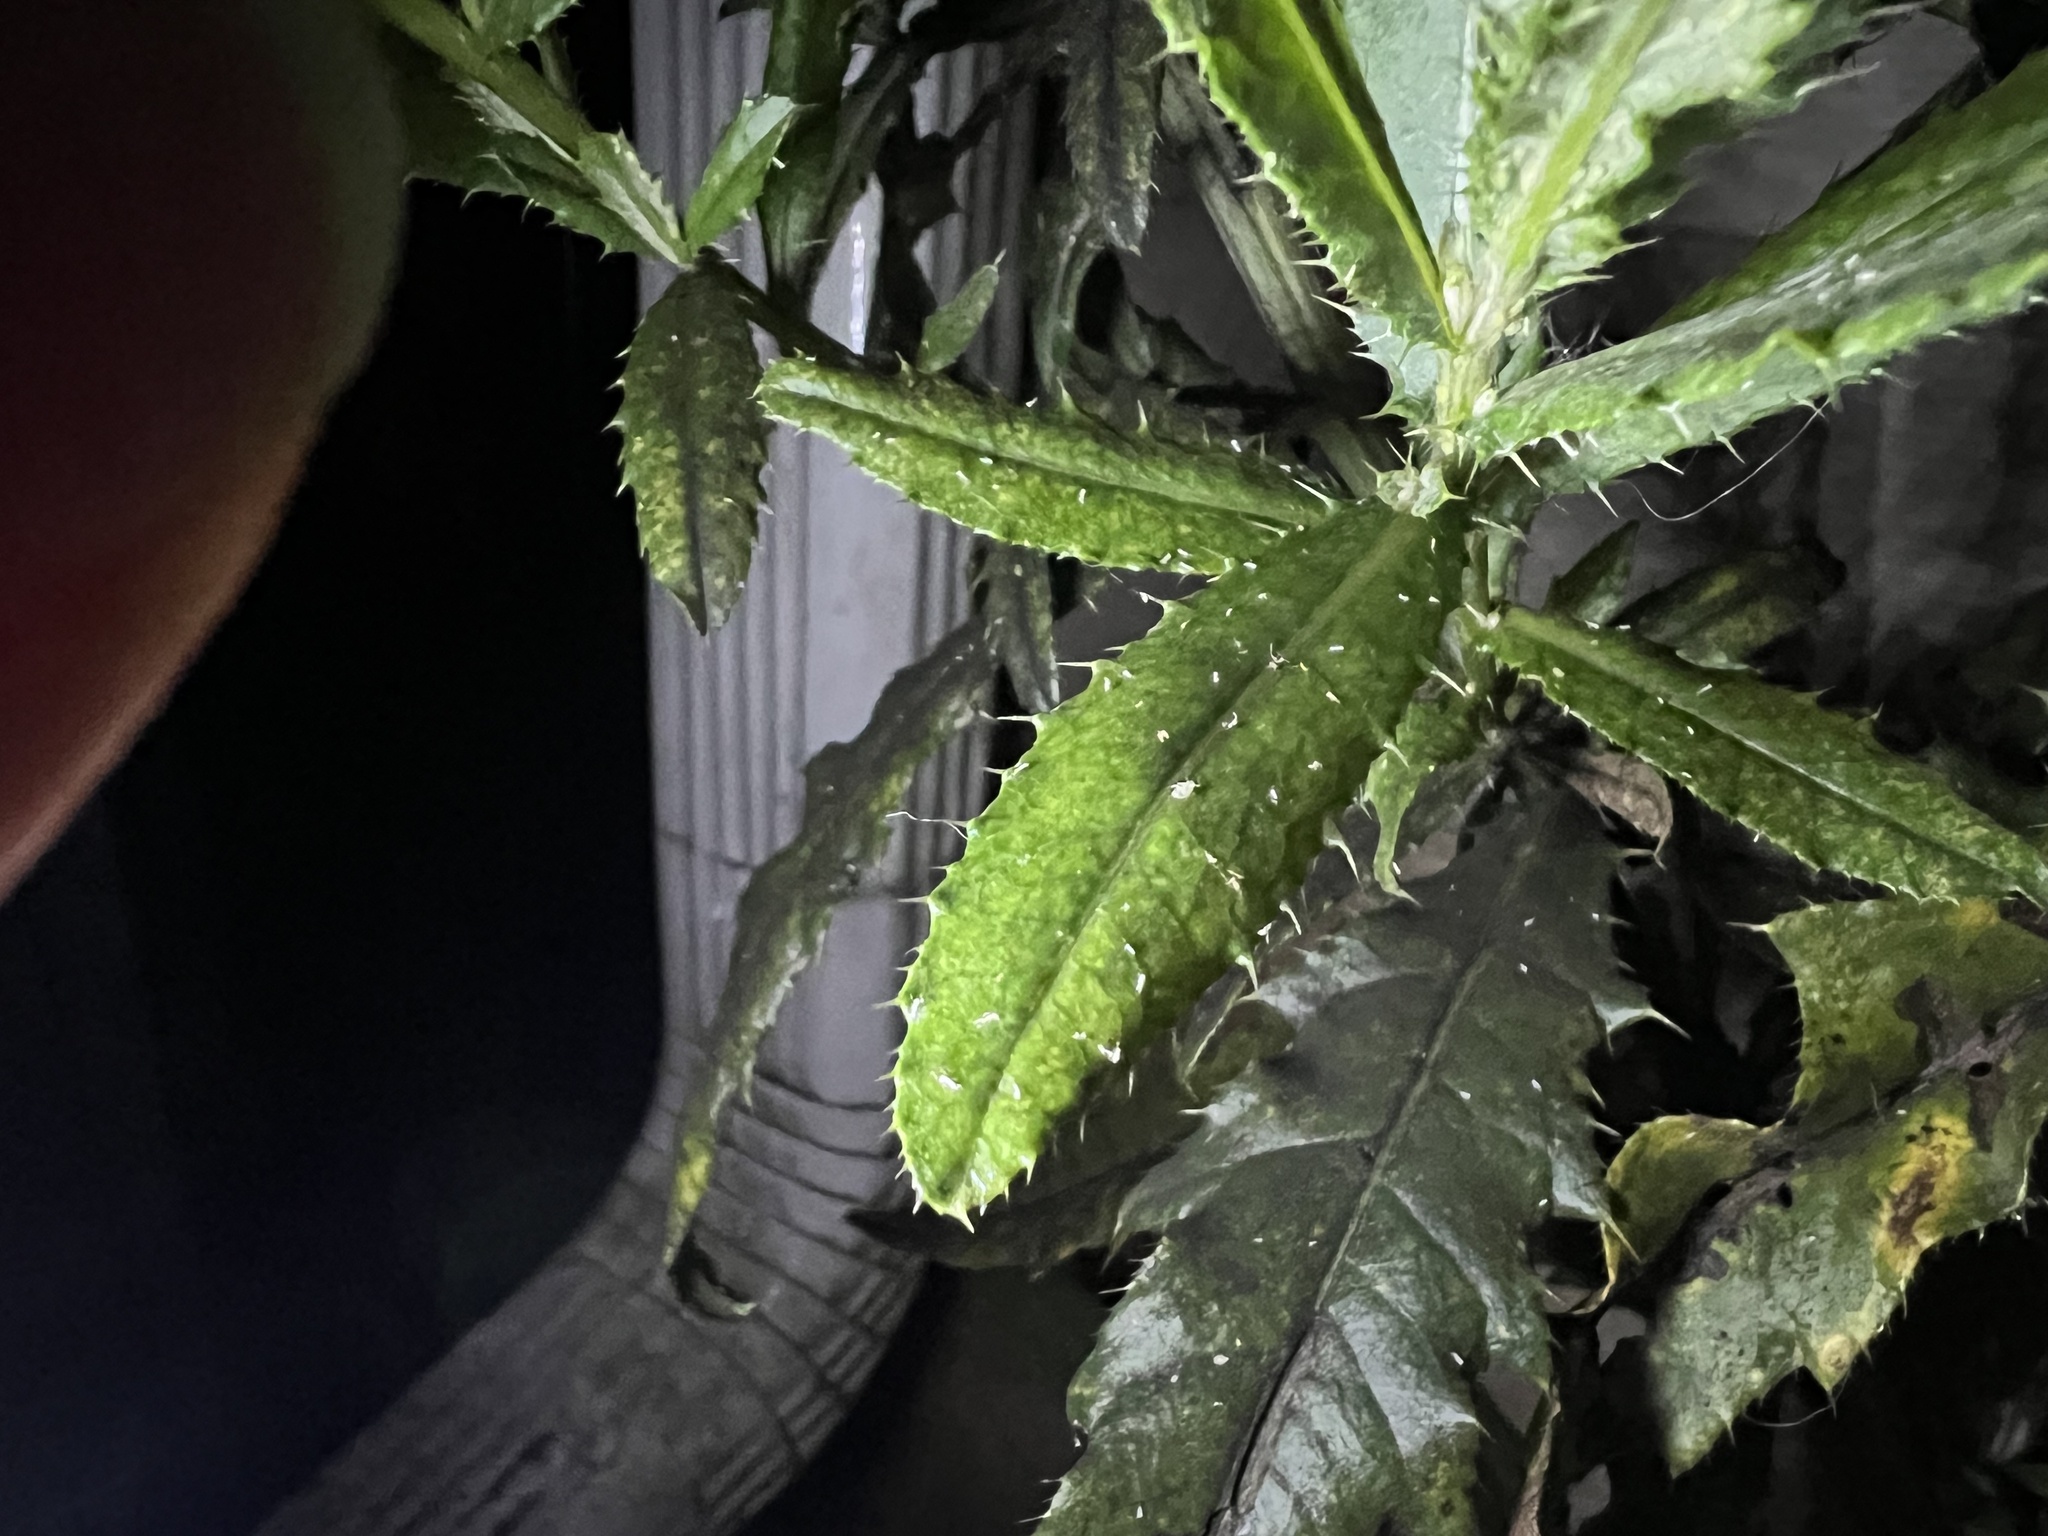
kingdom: Plantae
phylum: Tracheophyta
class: Magnoliopsida
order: Asterales
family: Asteraceae
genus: Cirsium
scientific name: Cirsium arvense
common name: Creeping thistle
